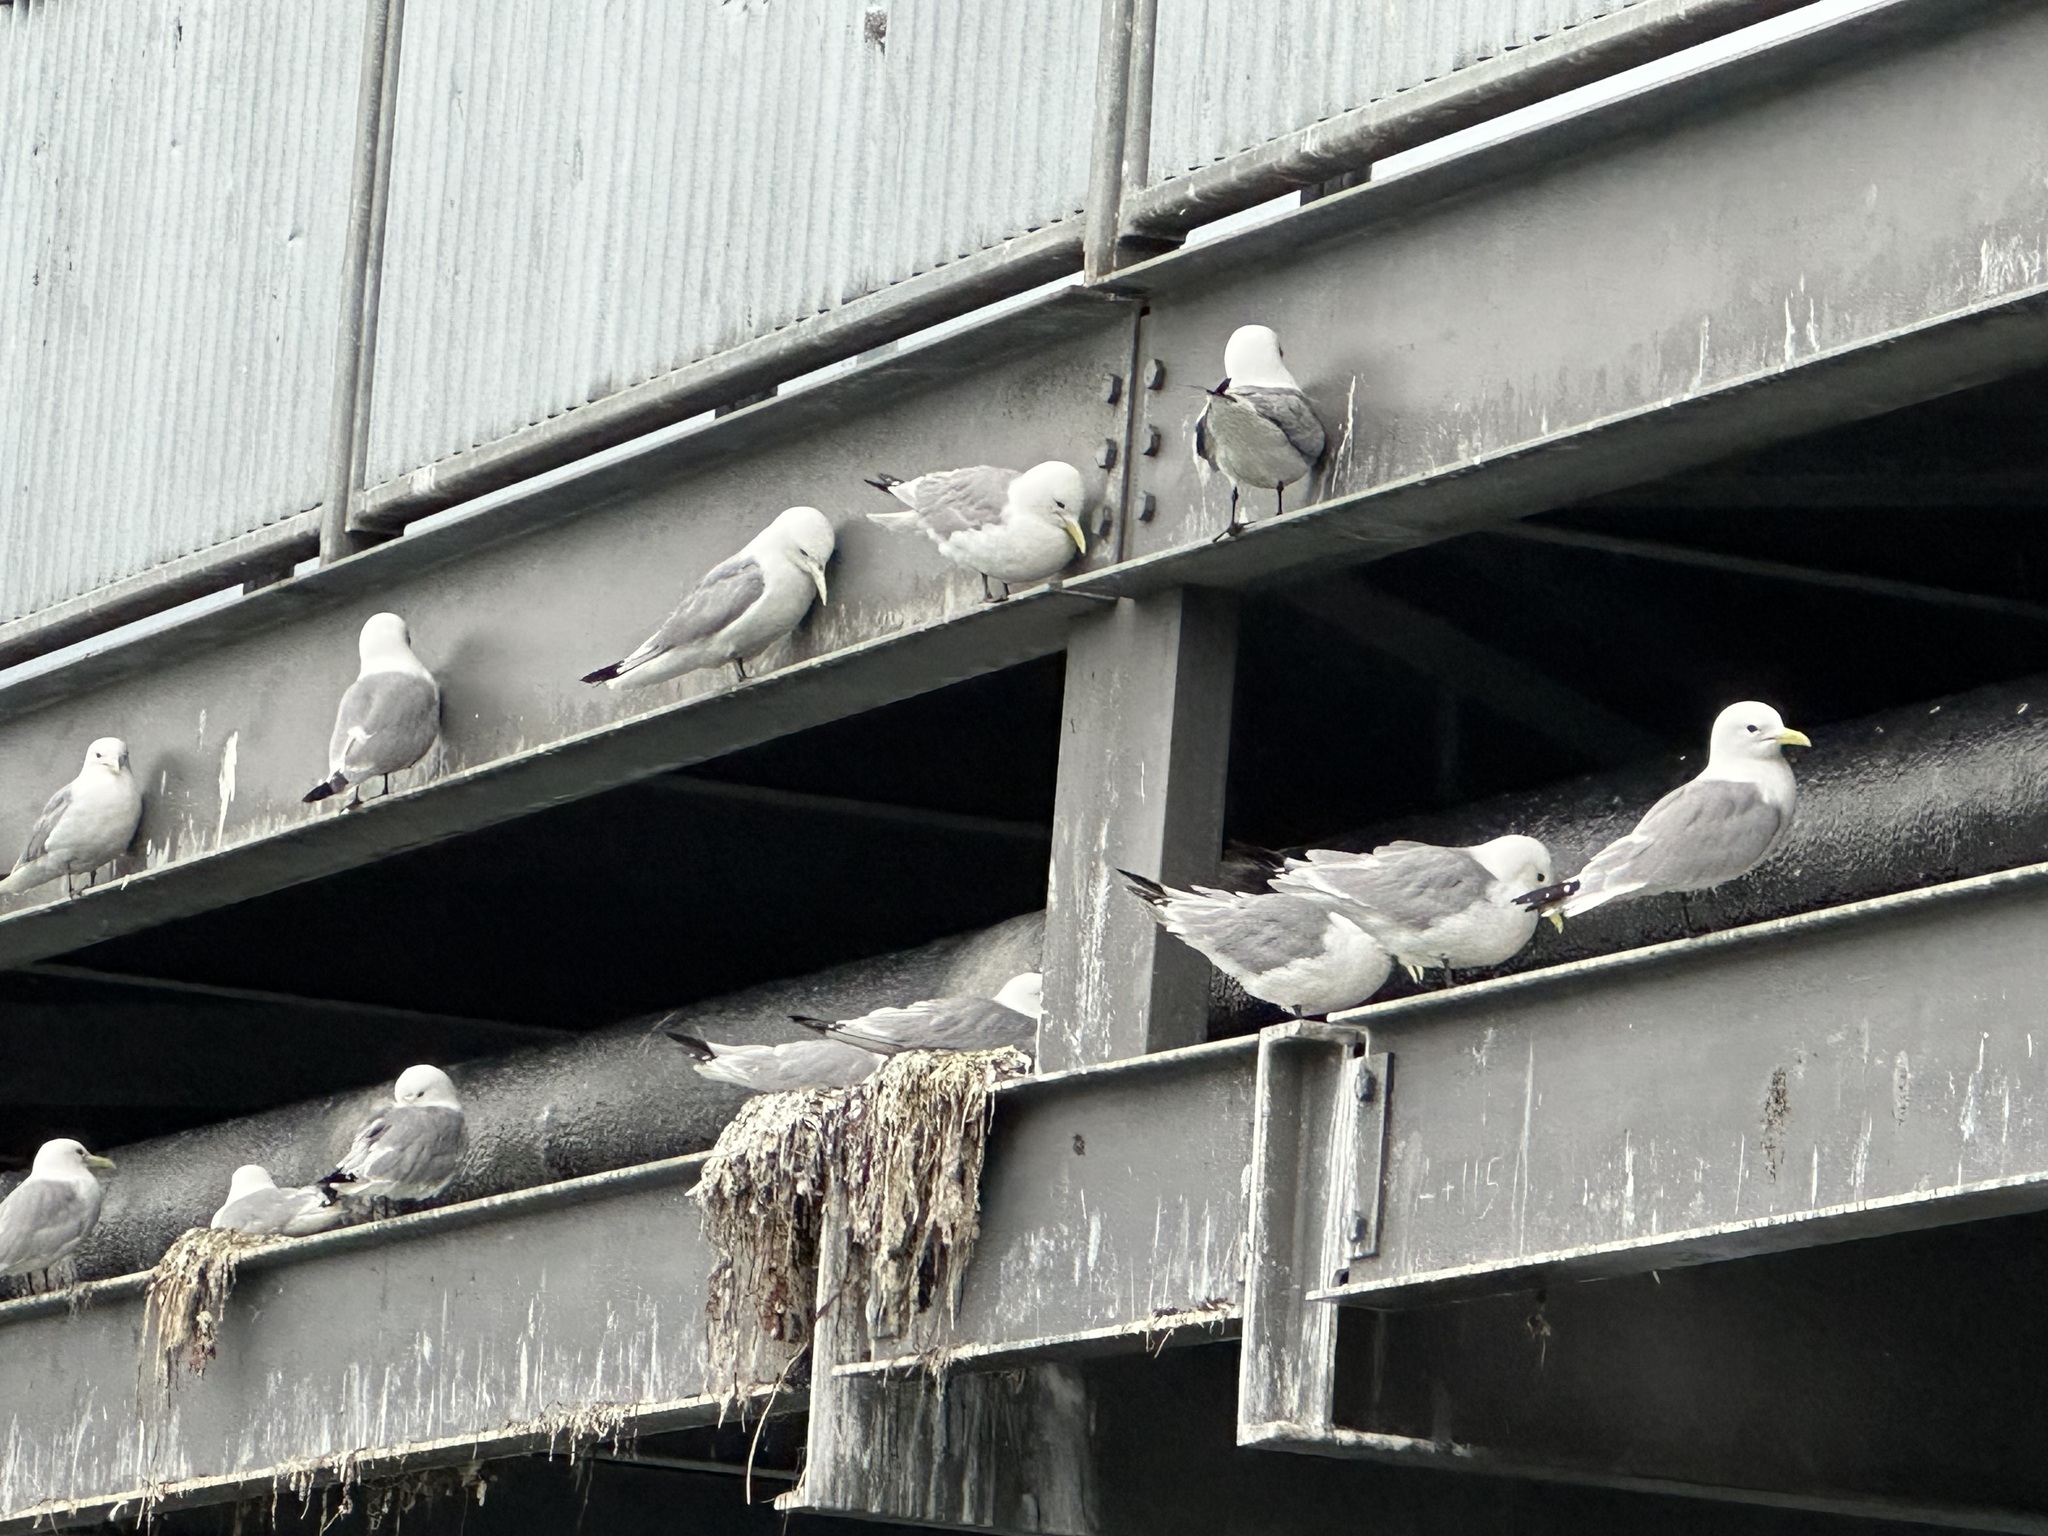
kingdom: Animalia
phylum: Chordata
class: Aves
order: Charadriiformes
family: Laridae
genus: Rissa
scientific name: Rissa tridactyla
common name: Black-legged kittiwake
